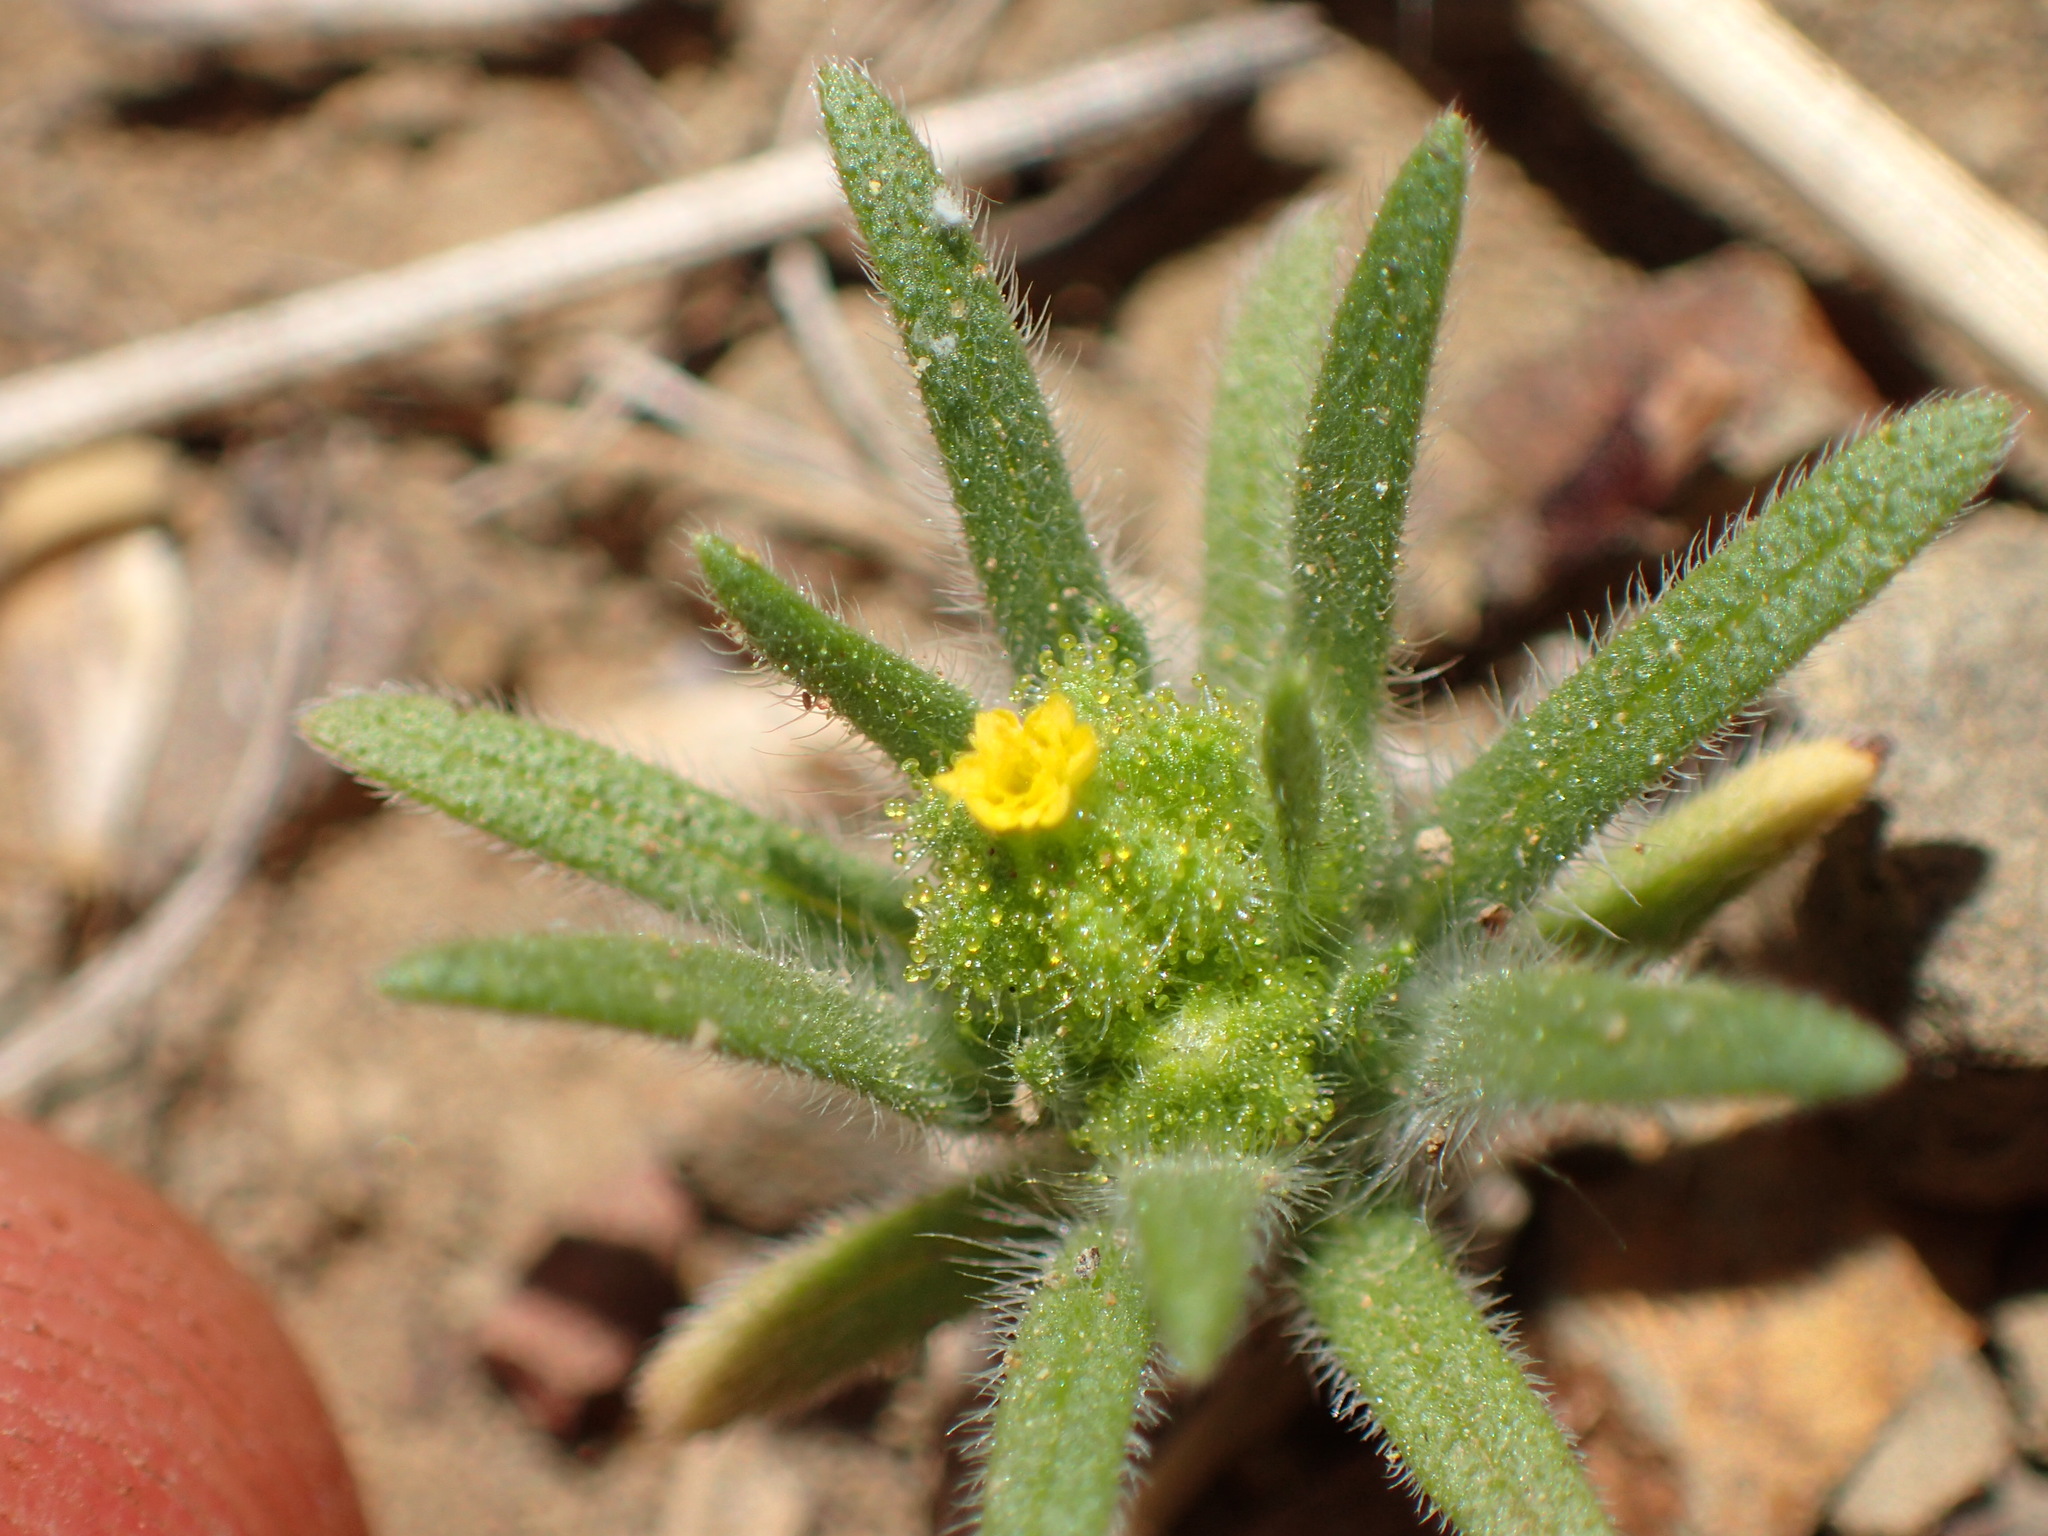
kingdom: Plantae
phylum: Tracheophyta
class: Magnoliopsida
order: Asterales
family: Asteraceae
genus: Madia
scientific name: Madia exigua
